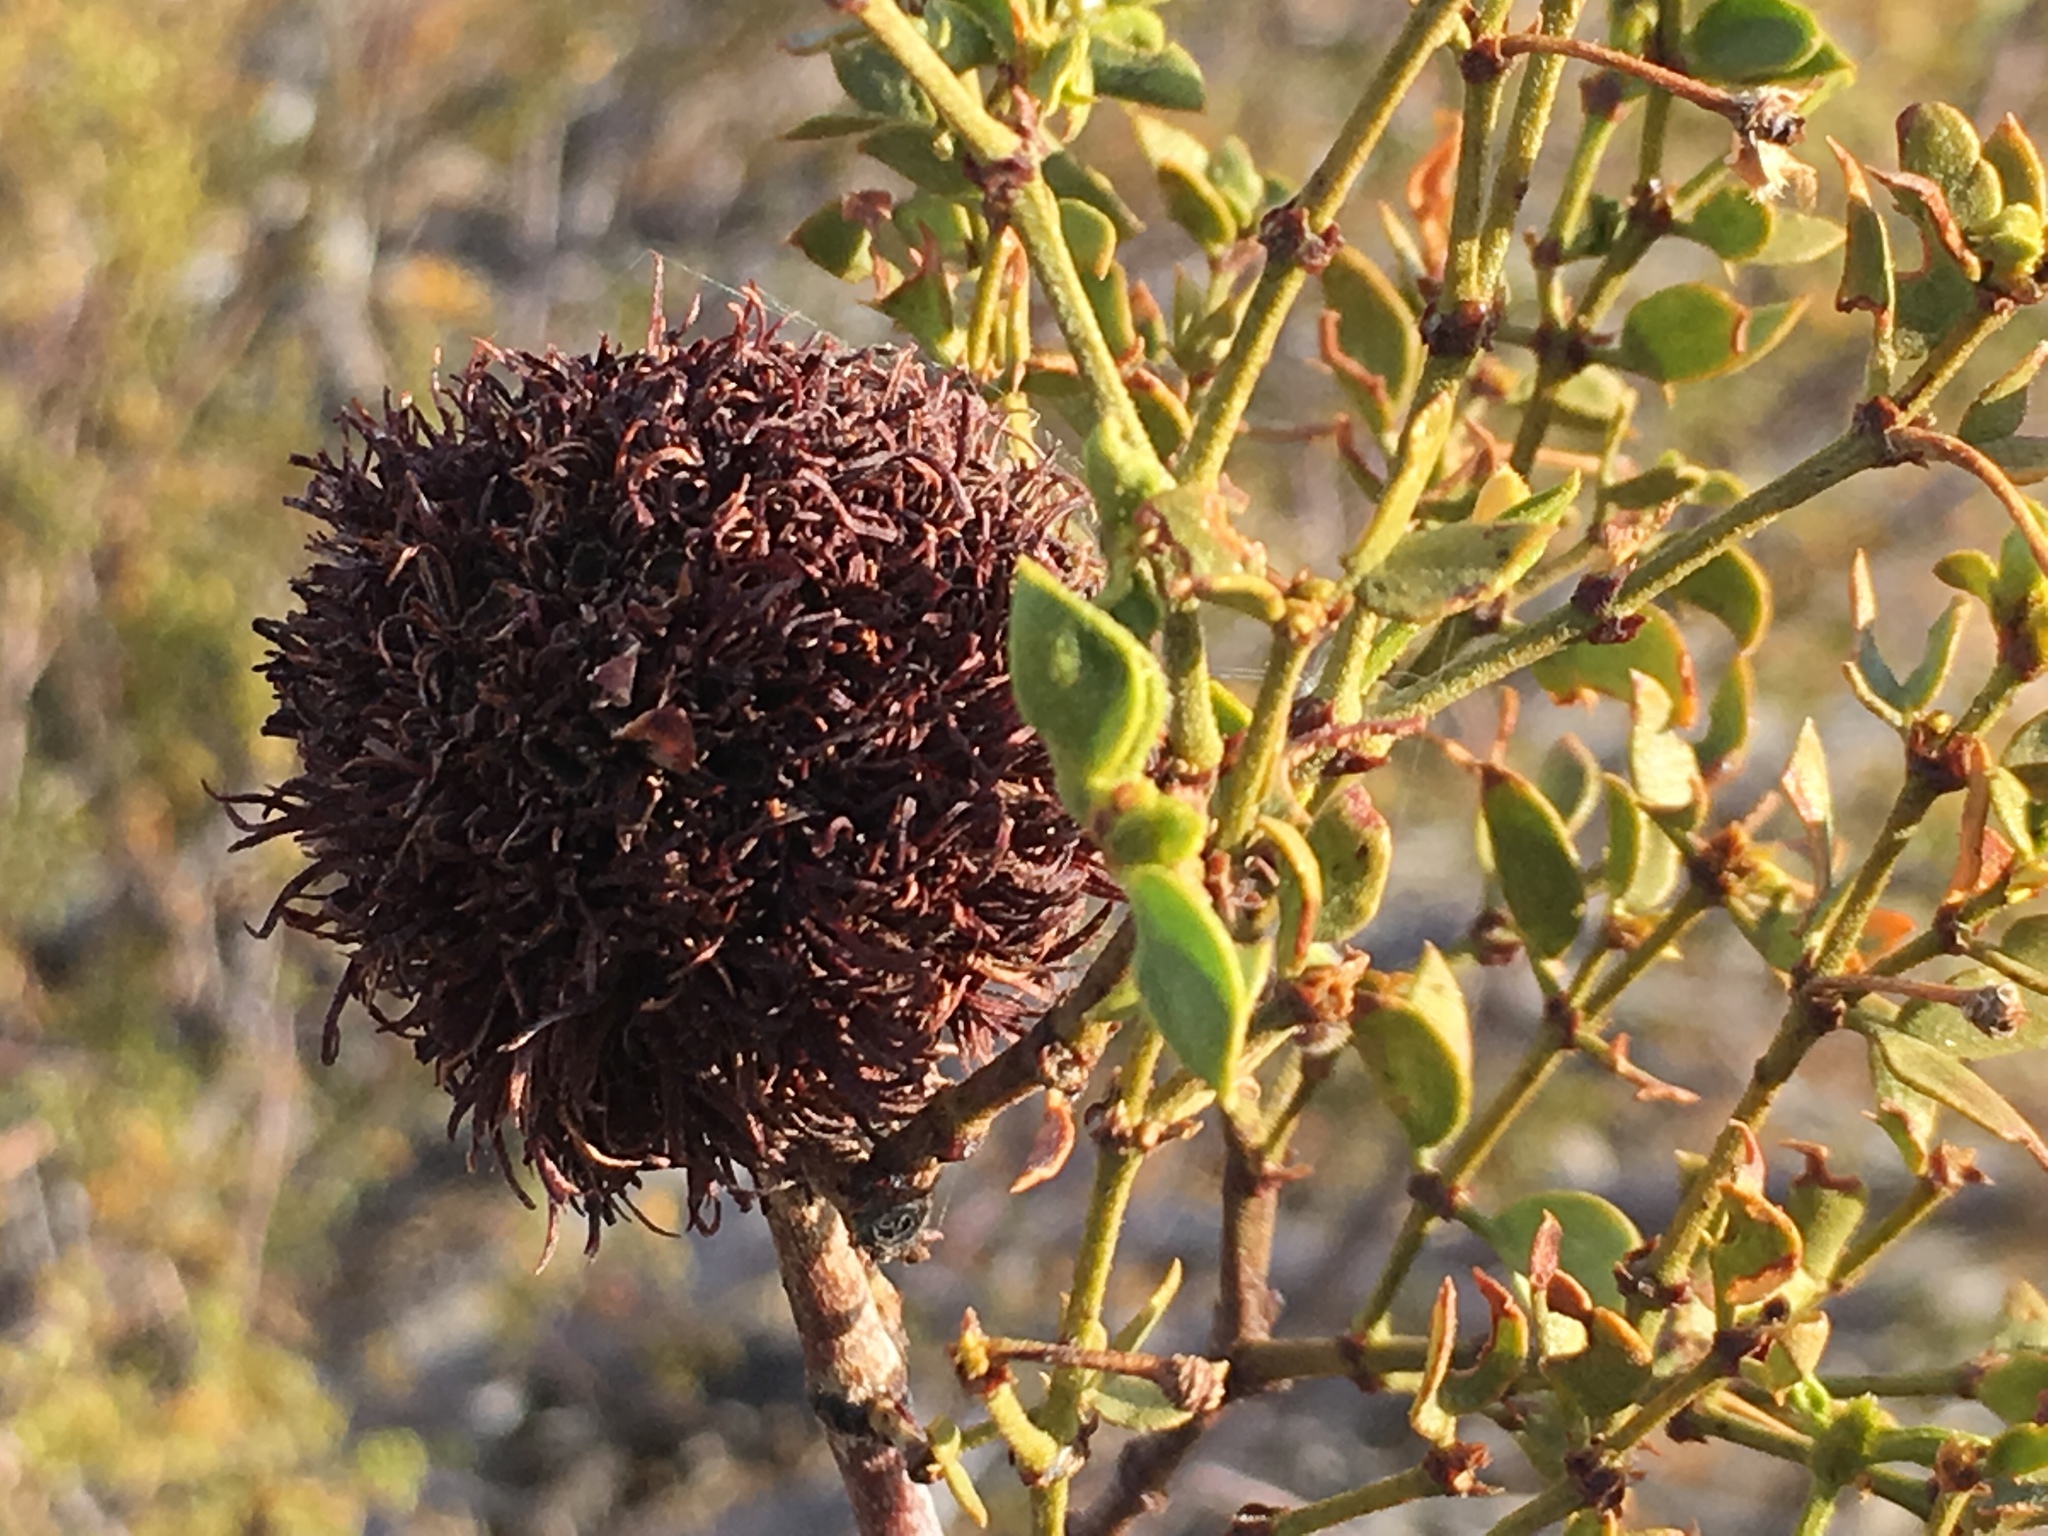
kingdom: Plantae
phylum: Tracheophyta
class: Magnoliopsida
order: Zygophyllales
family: Zygophyllaceae
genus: Larrea
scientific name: Larrea tridentata
